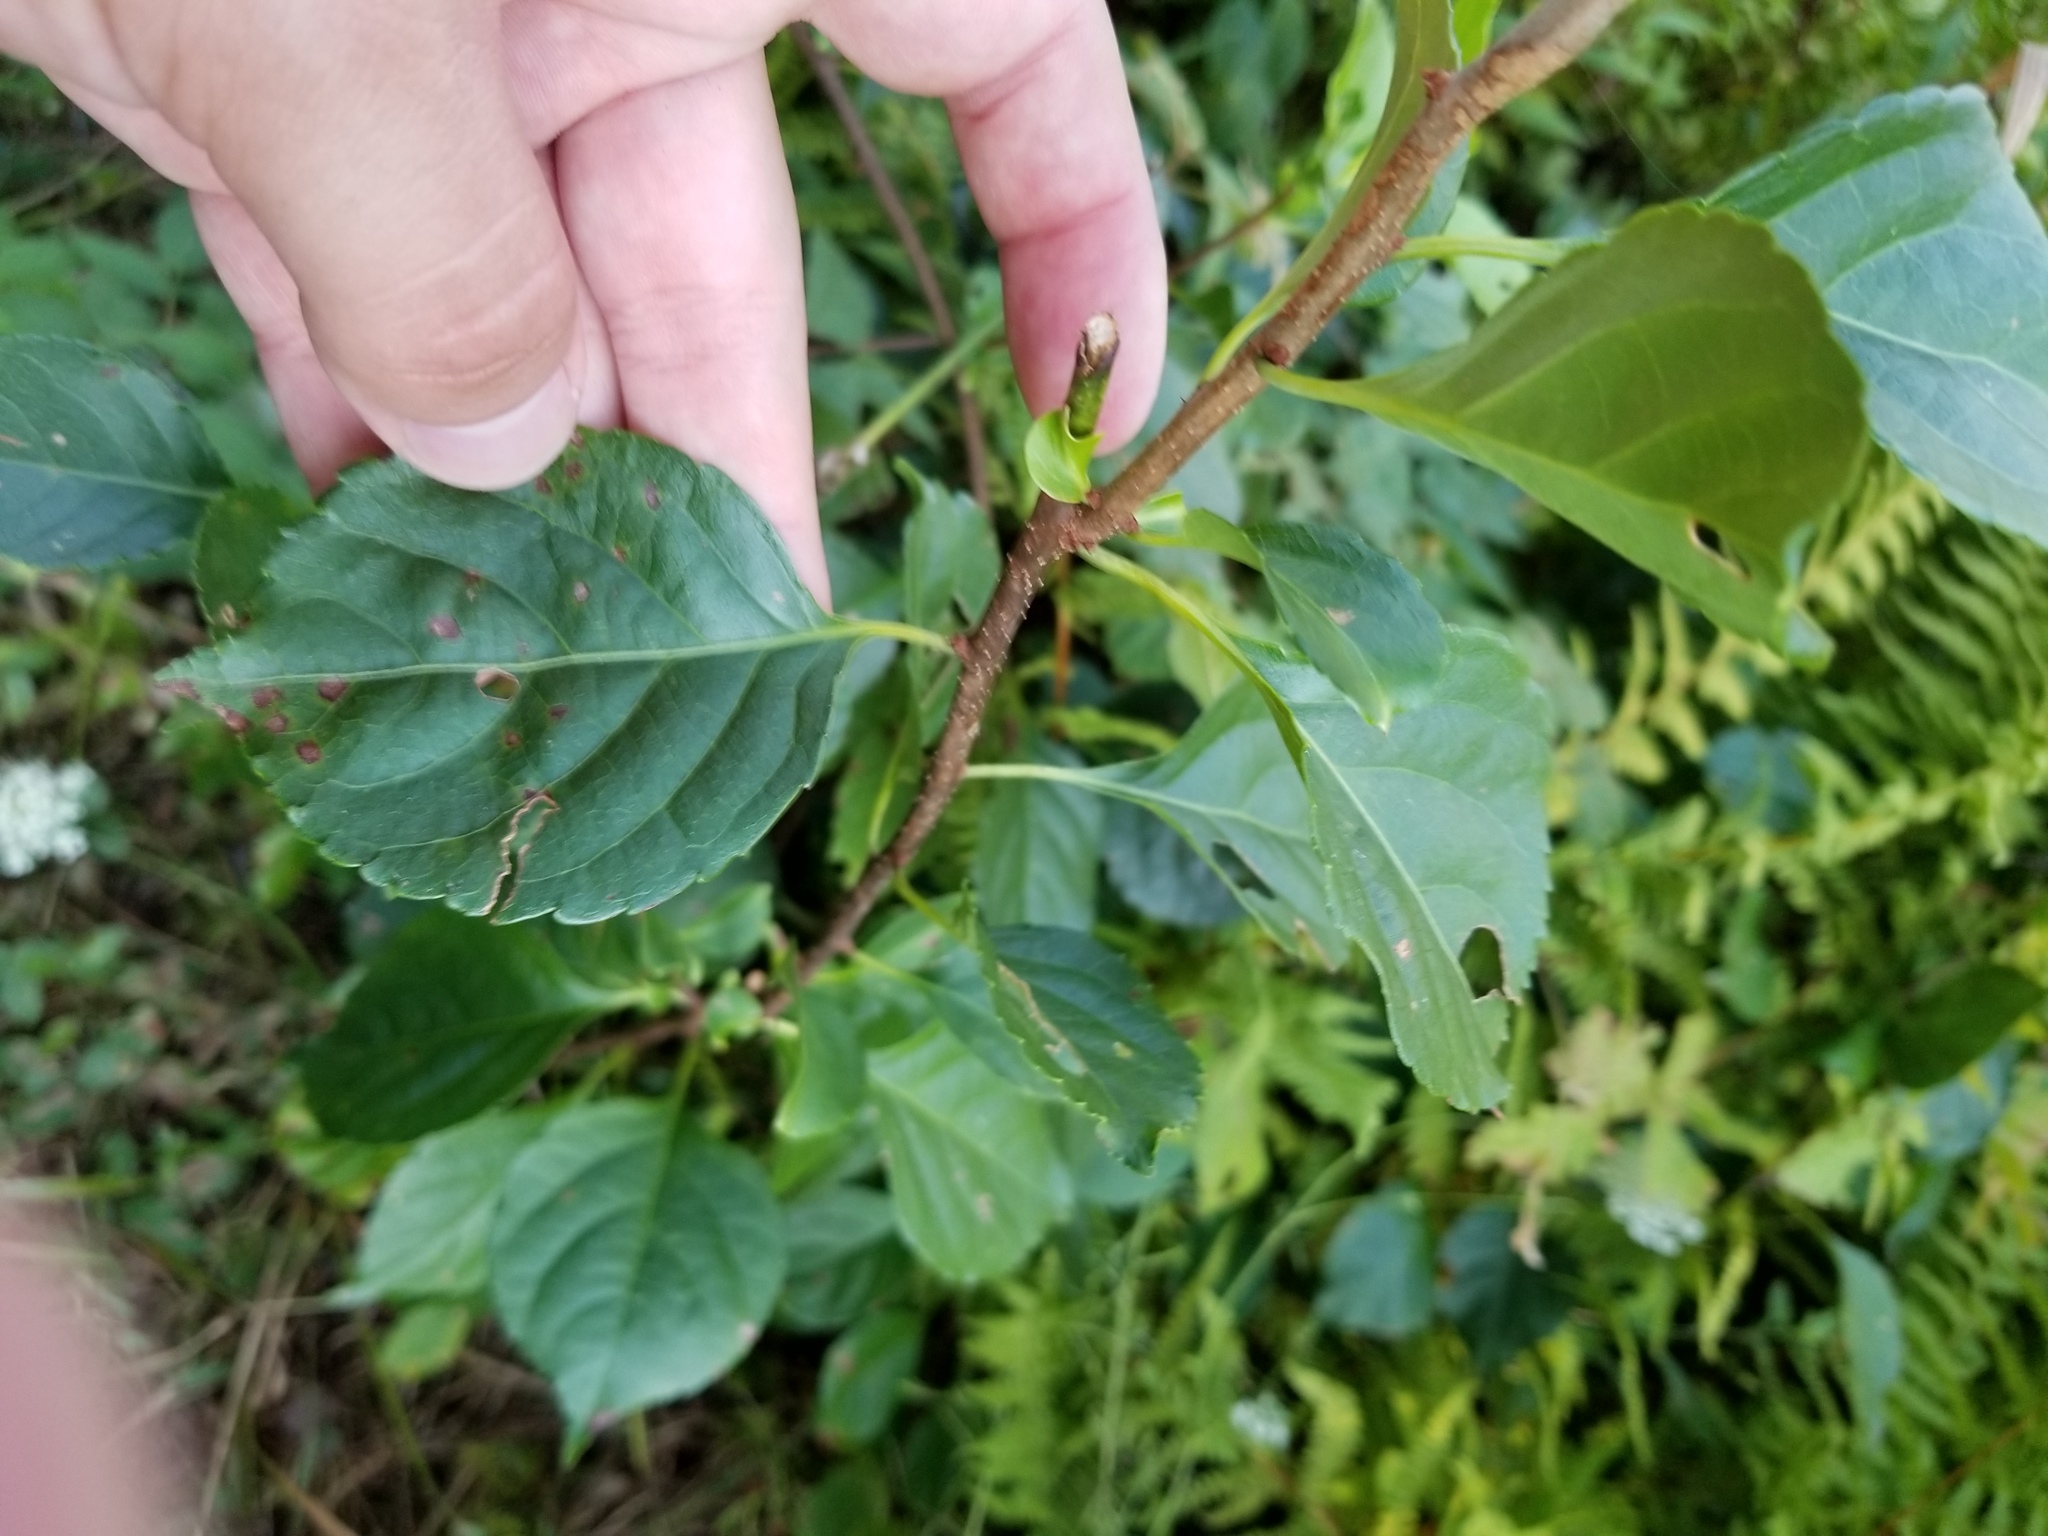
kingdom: Plantae
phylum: Tracheophyta
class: Magnoliopsida
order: Celastrales
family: Celastraceae
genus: Celastrus
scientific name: Celastrus orbiculatus
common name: Oriental bittersweet
